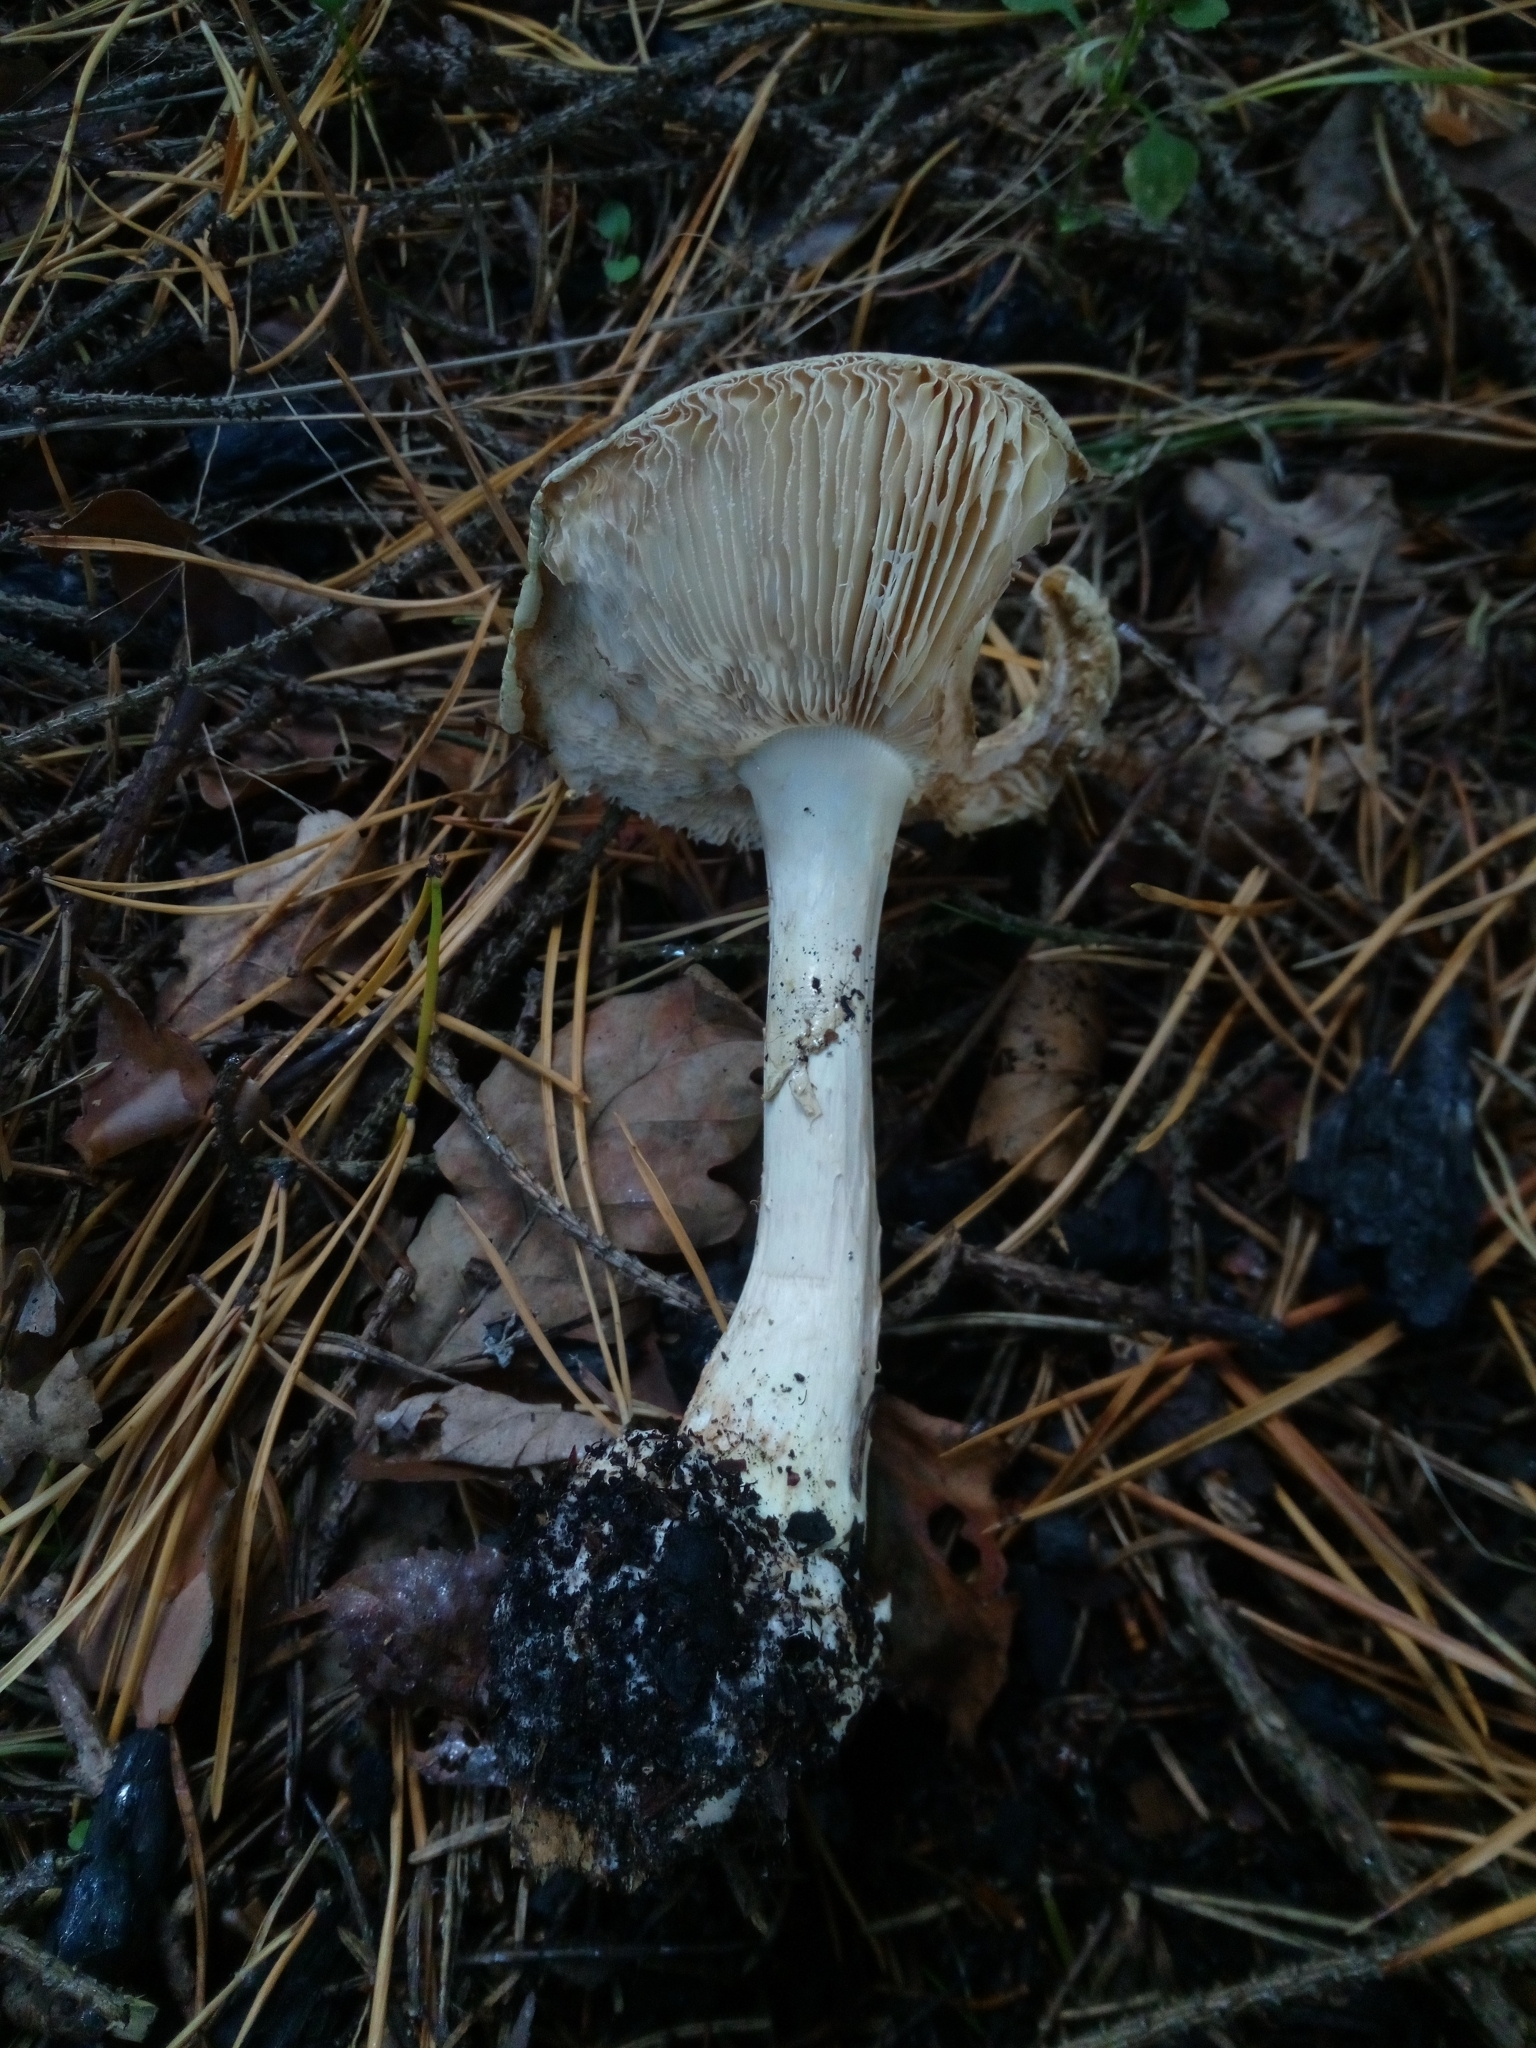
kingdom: Fungi
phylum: Basidiomycota
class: Agaricomycetes
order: Agaricales
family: Amanitaceae
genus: Amanita
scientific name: Amanita citrina
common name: False death-cap
